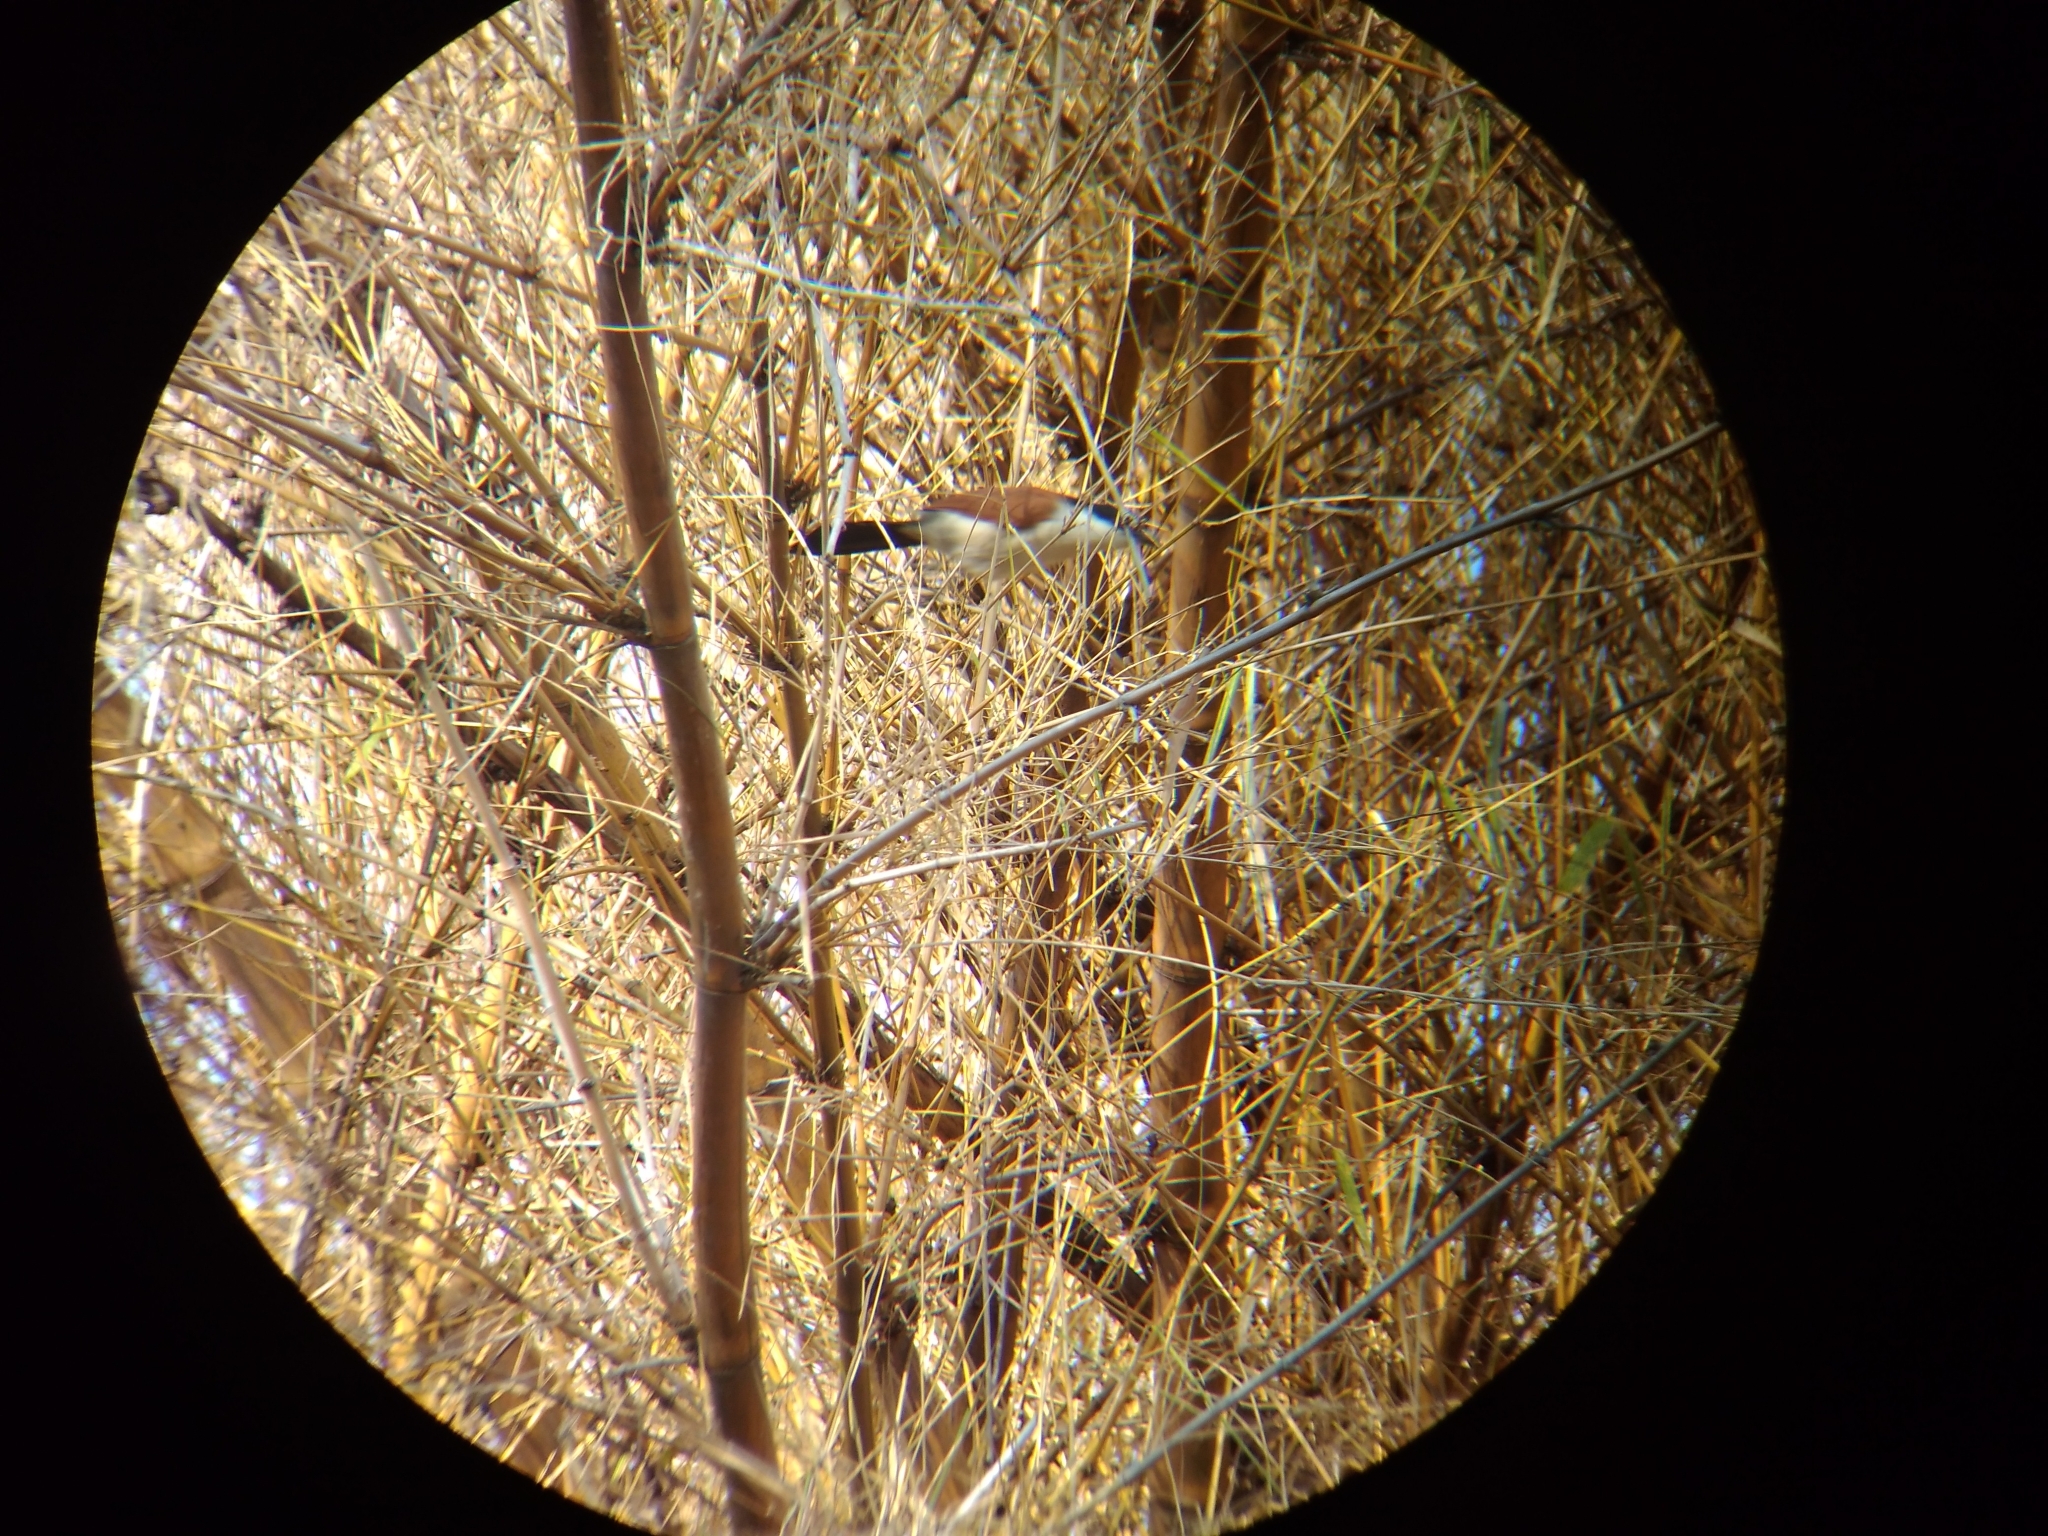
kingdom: Animalia
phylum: Chordata
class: Aves
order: Cuculiformes
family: Cuculidae
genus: Centropus
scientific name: Centropus senegalensis
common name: Senegal coucal
